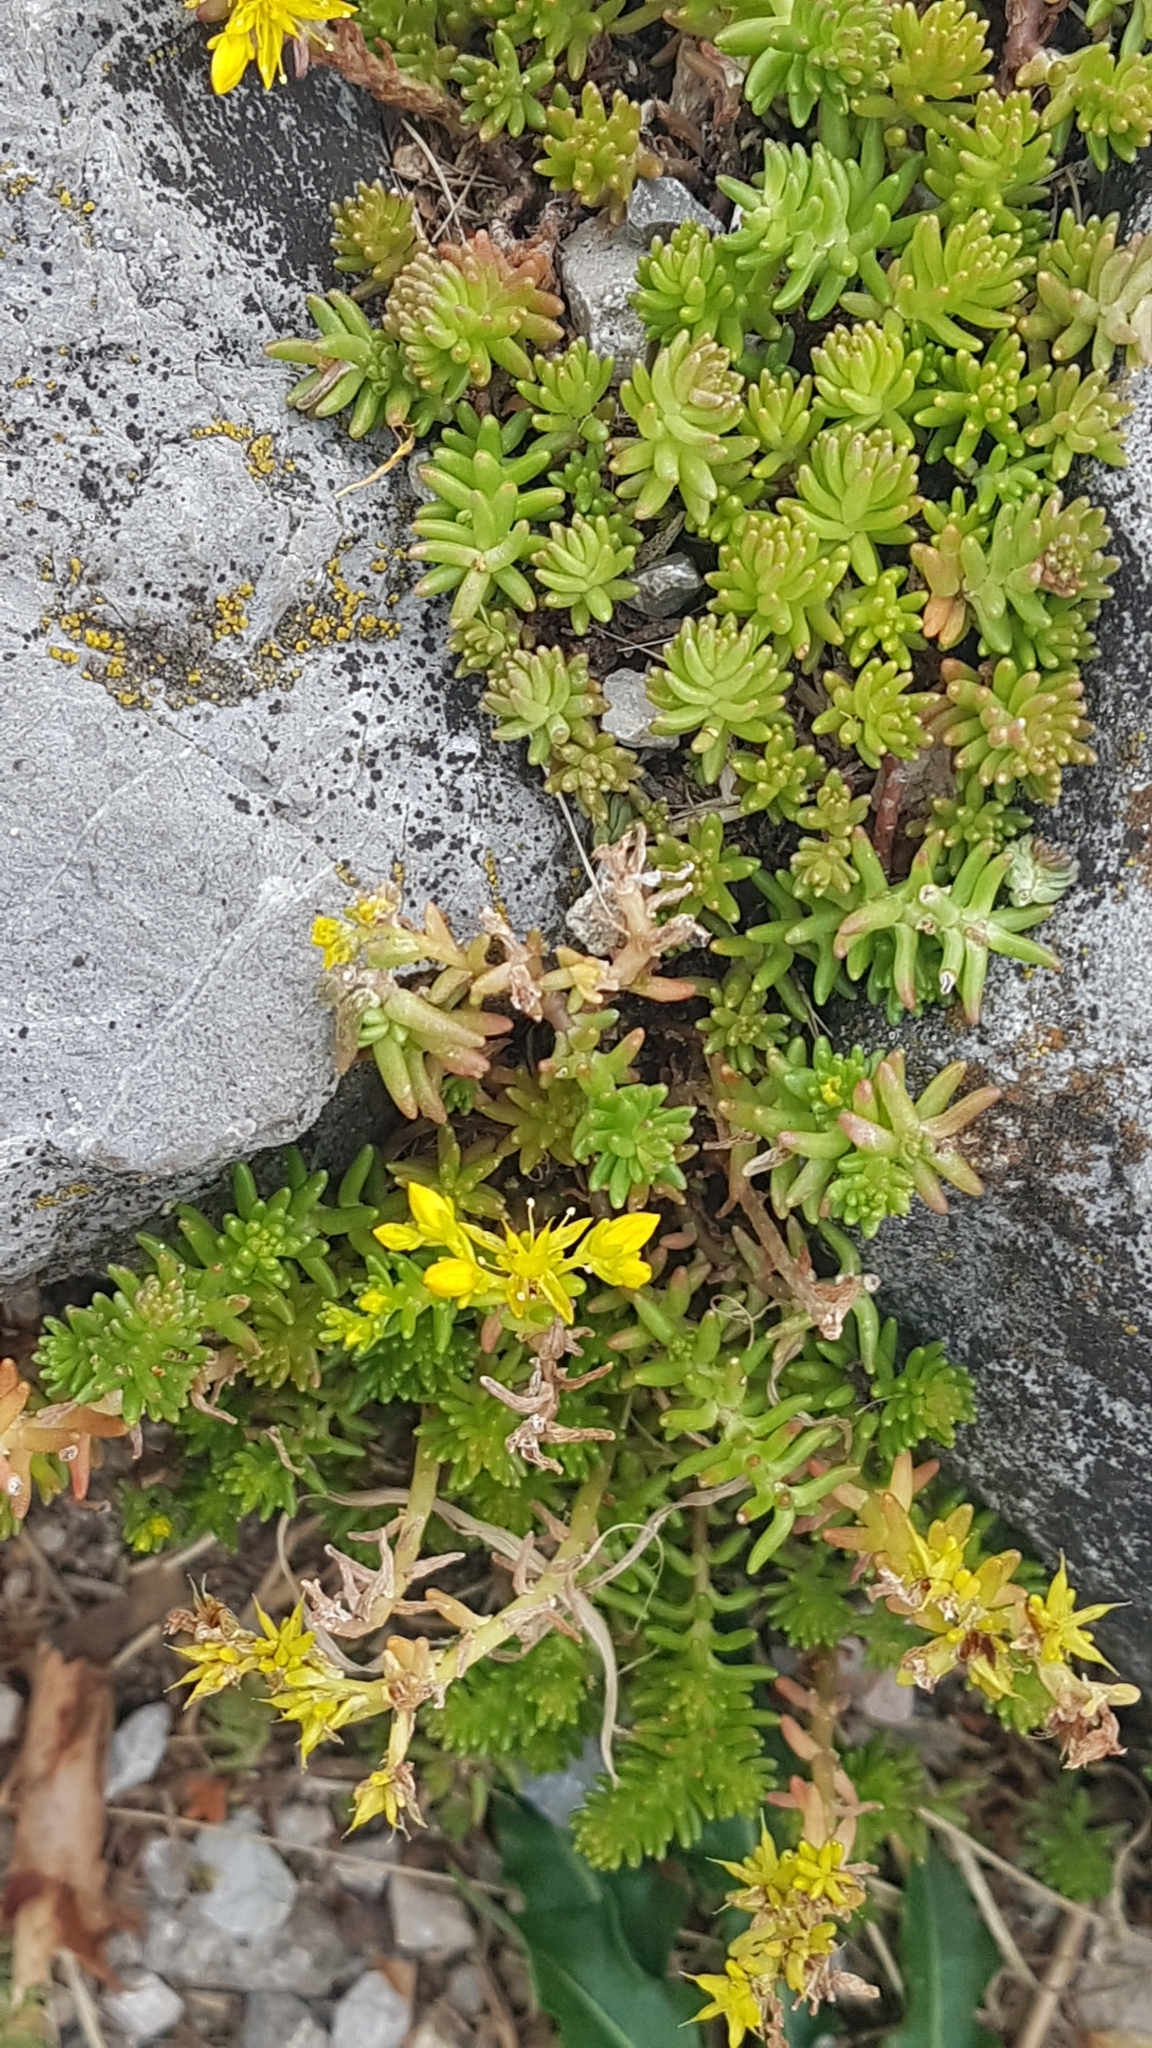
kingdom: Plantae
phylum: Tracheophyta
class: Magnoliopsida
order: Saxifragales
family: Crassulaceae
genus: Sedum
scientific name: Sedum sexangulare
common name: Tasteless stonecrop
